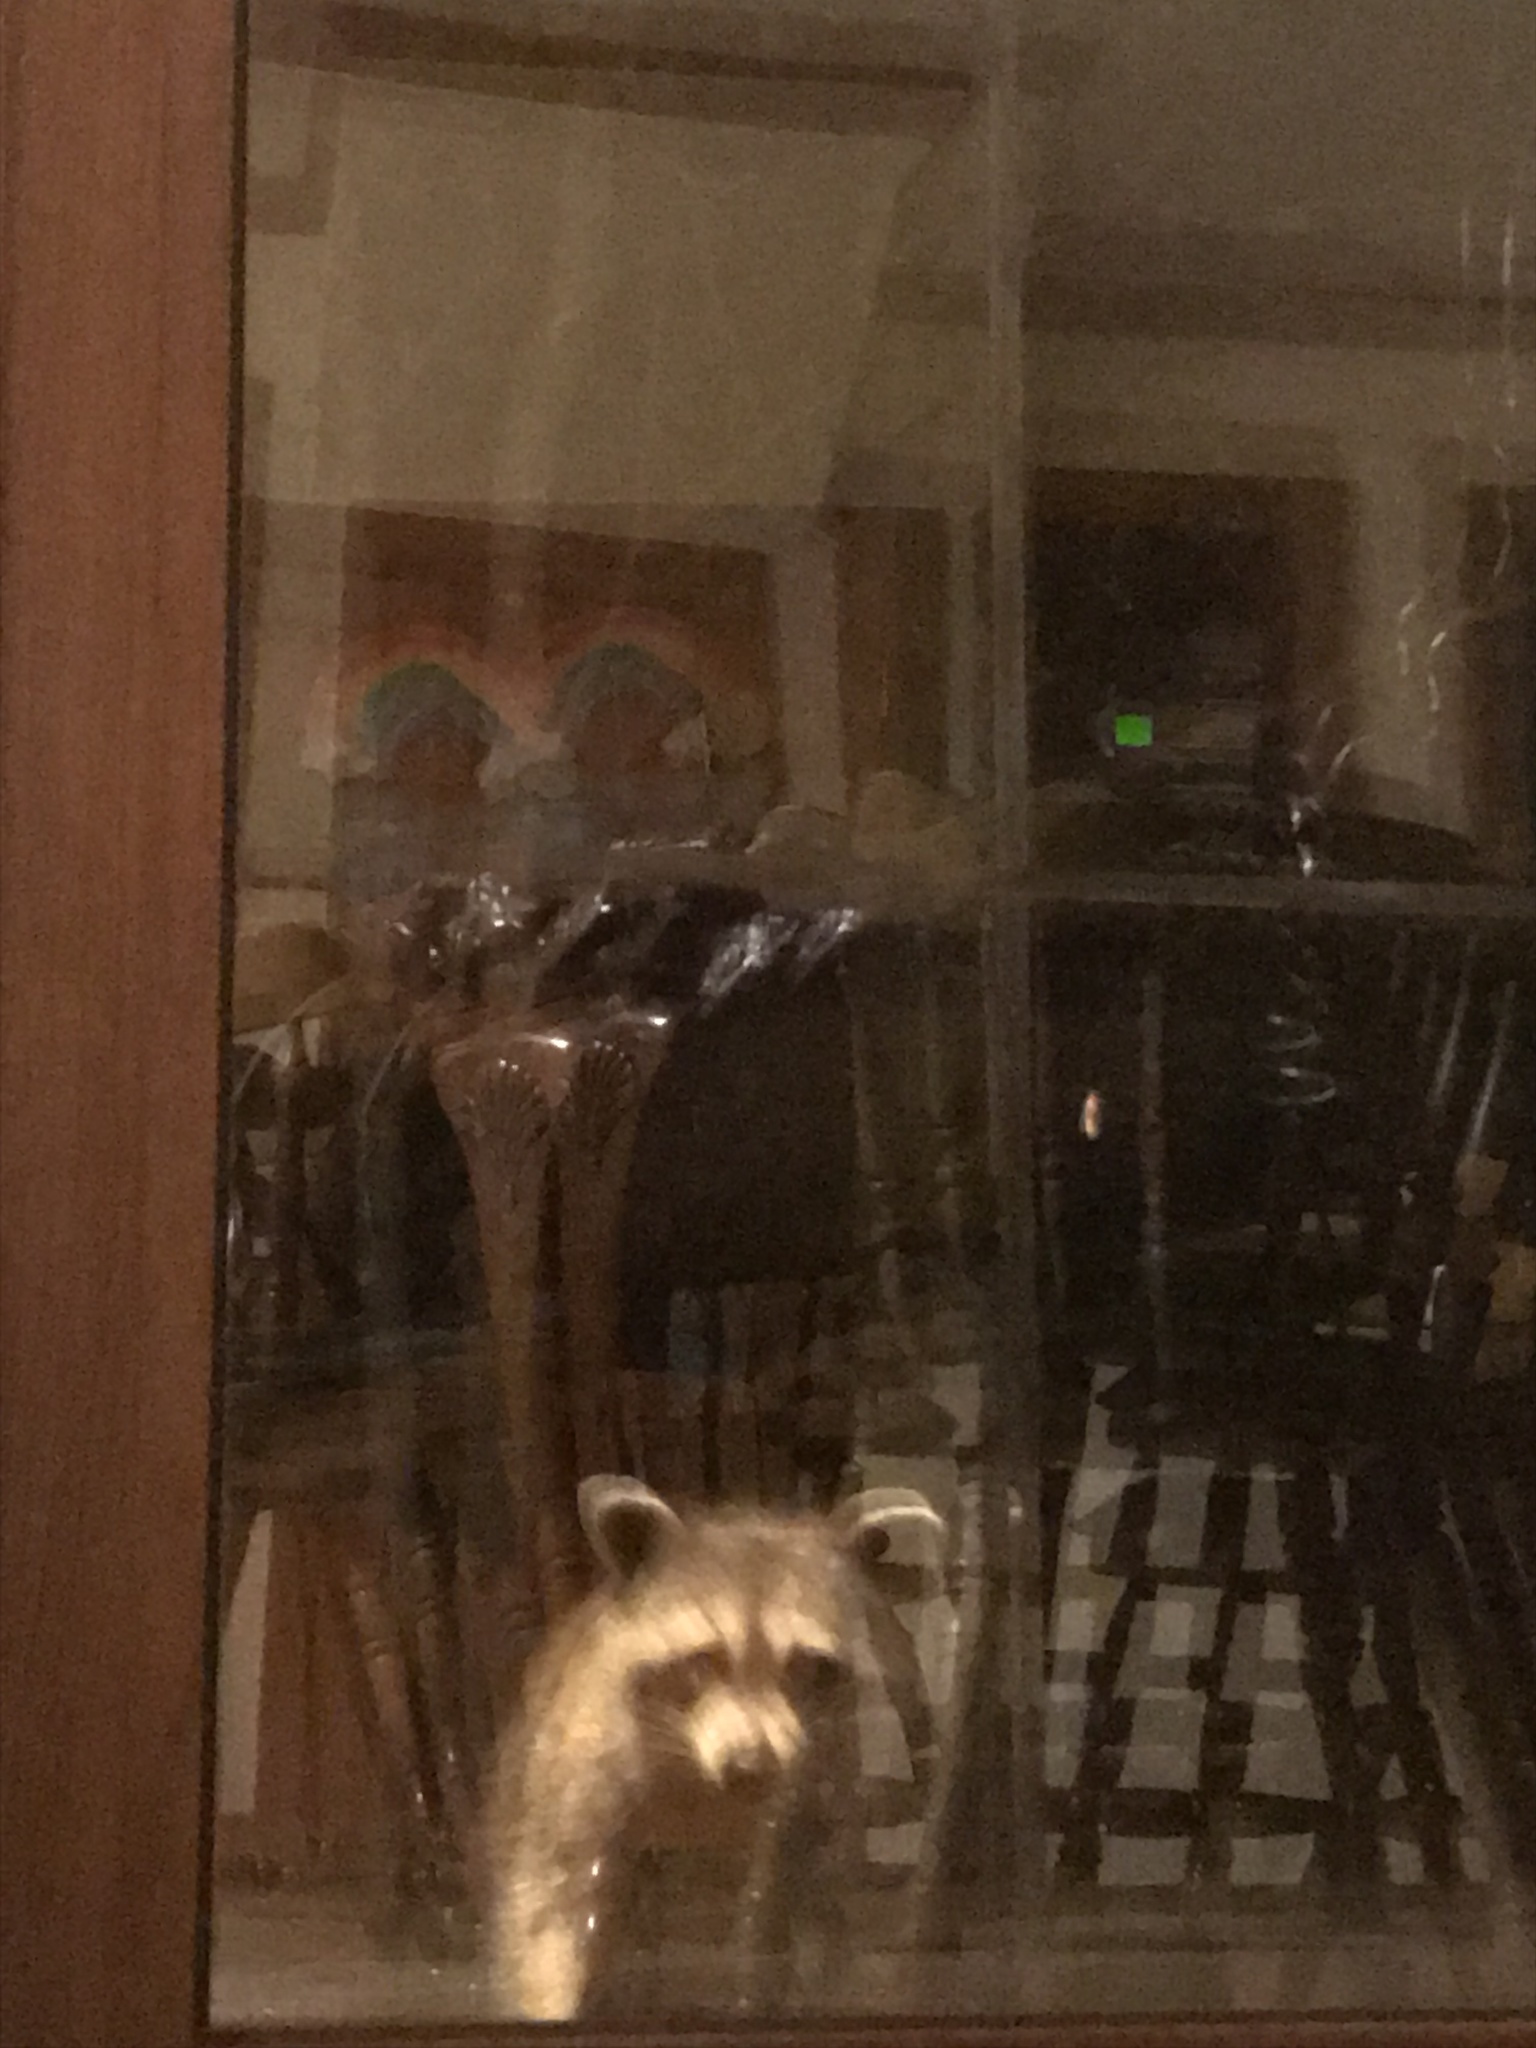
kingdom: Animalia
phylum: Chordata
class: Mammalia
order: Carnivora
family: Procyonidae
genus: Procyon
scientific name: Procyon lotor
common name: Raccoon
